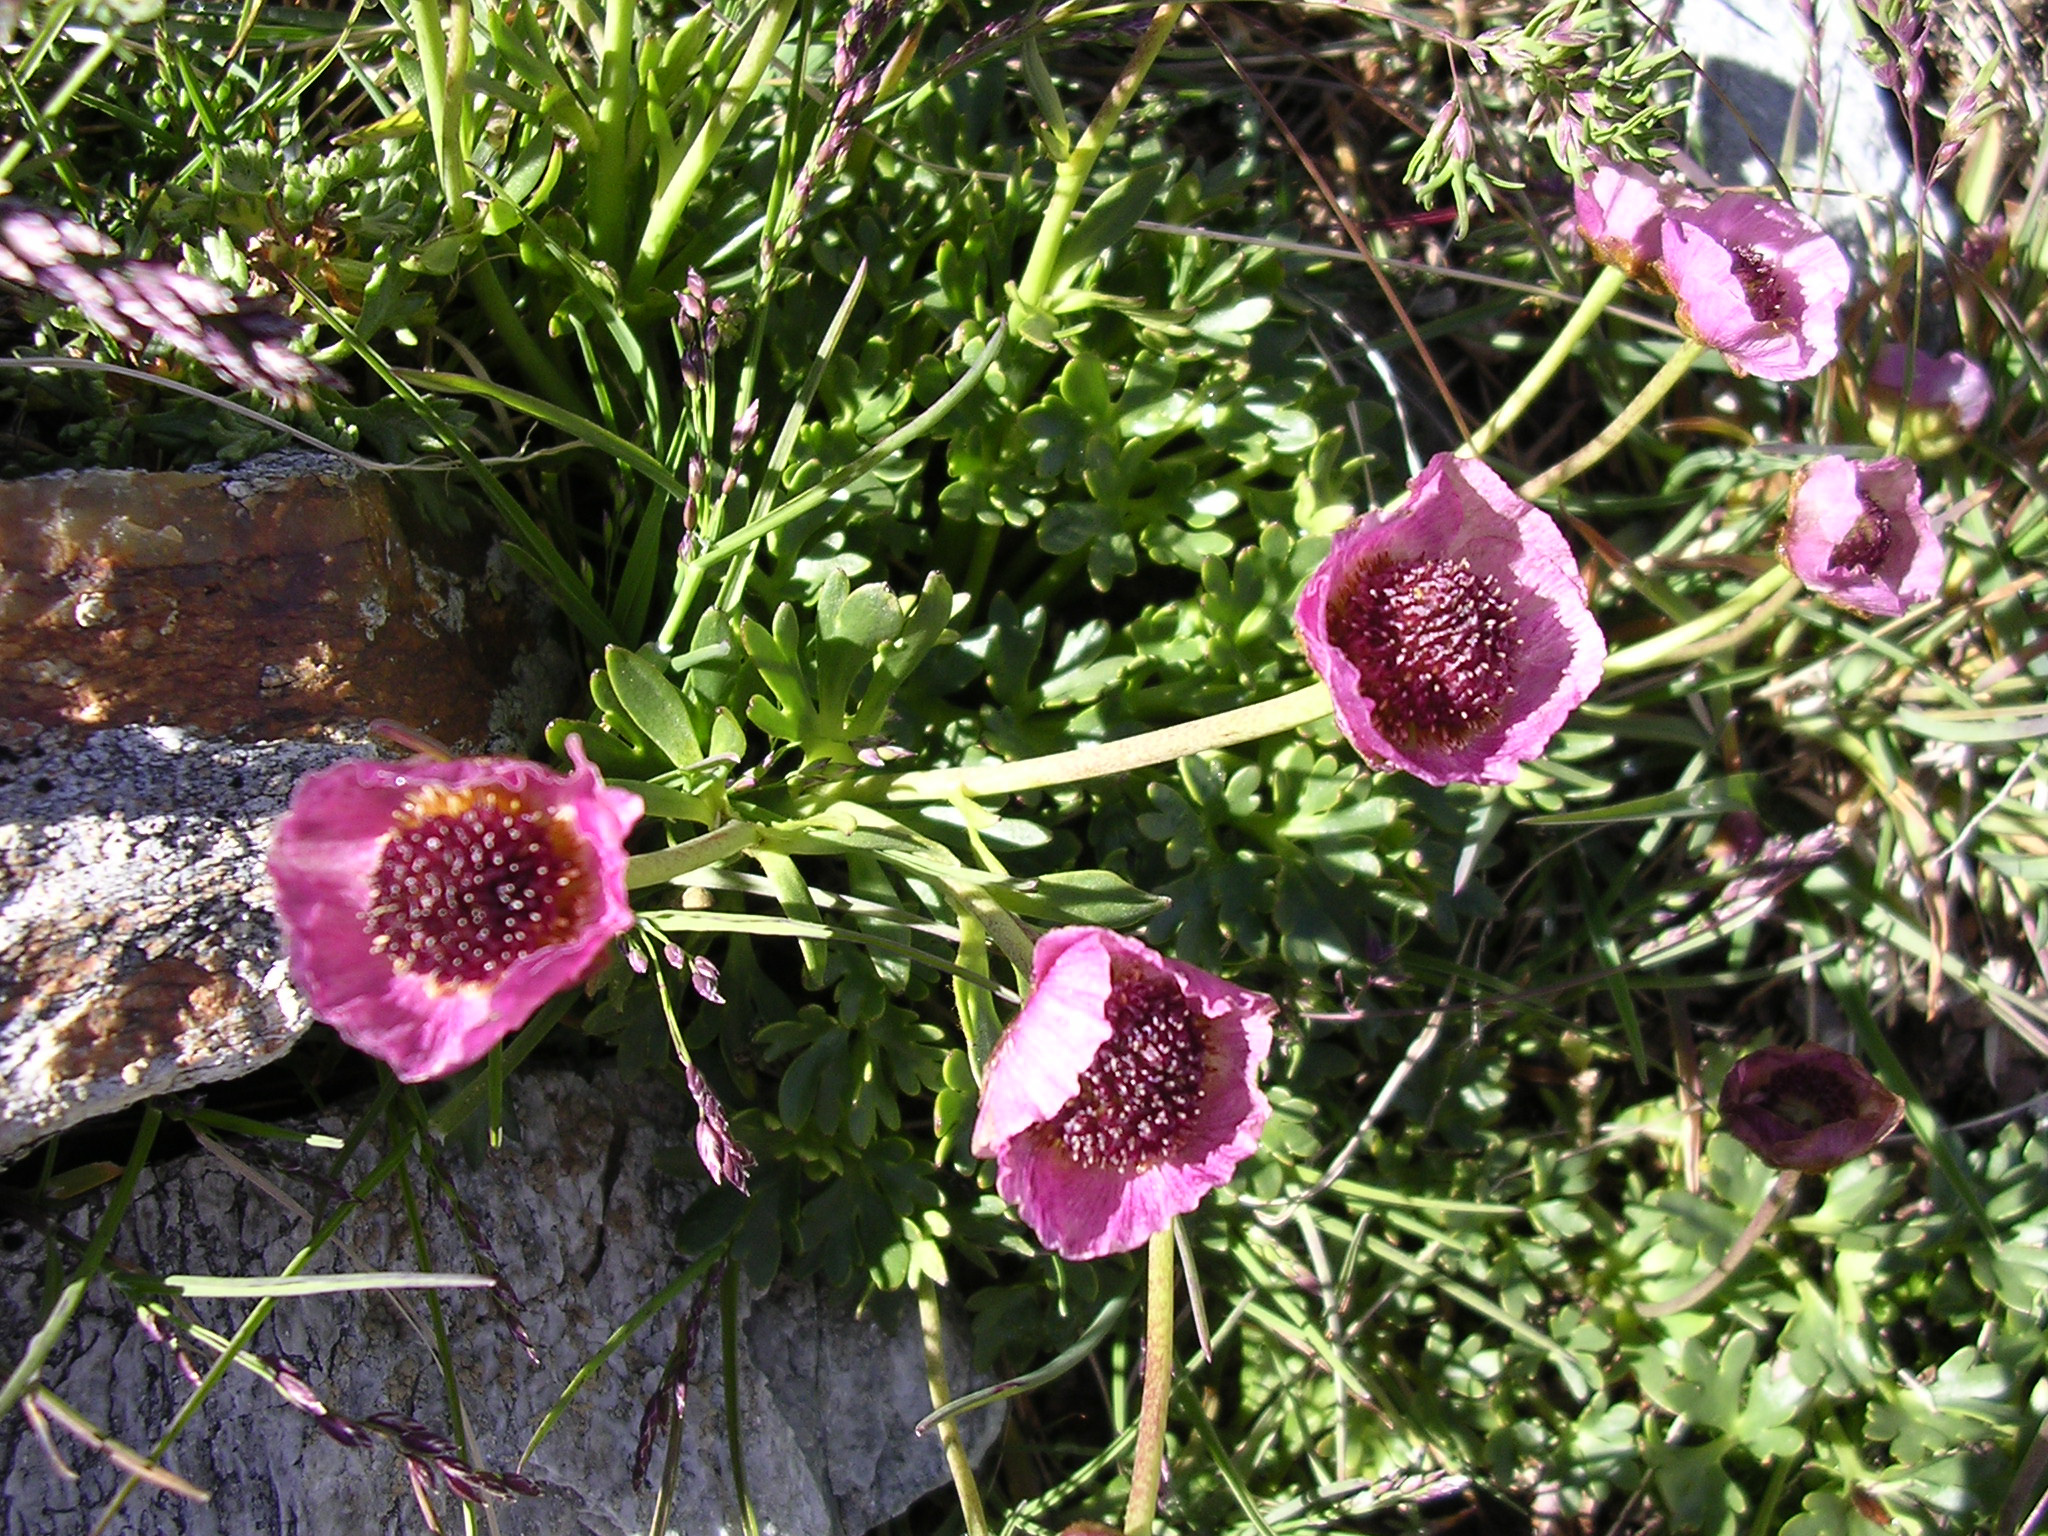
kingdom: Plantae
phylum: Tracheophyta
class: Magnoliopsida
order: Ranunculales
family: Ranunculaceae
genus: Ranunculus
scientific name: Ranunculus glacialis
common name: Glacier buttercup
